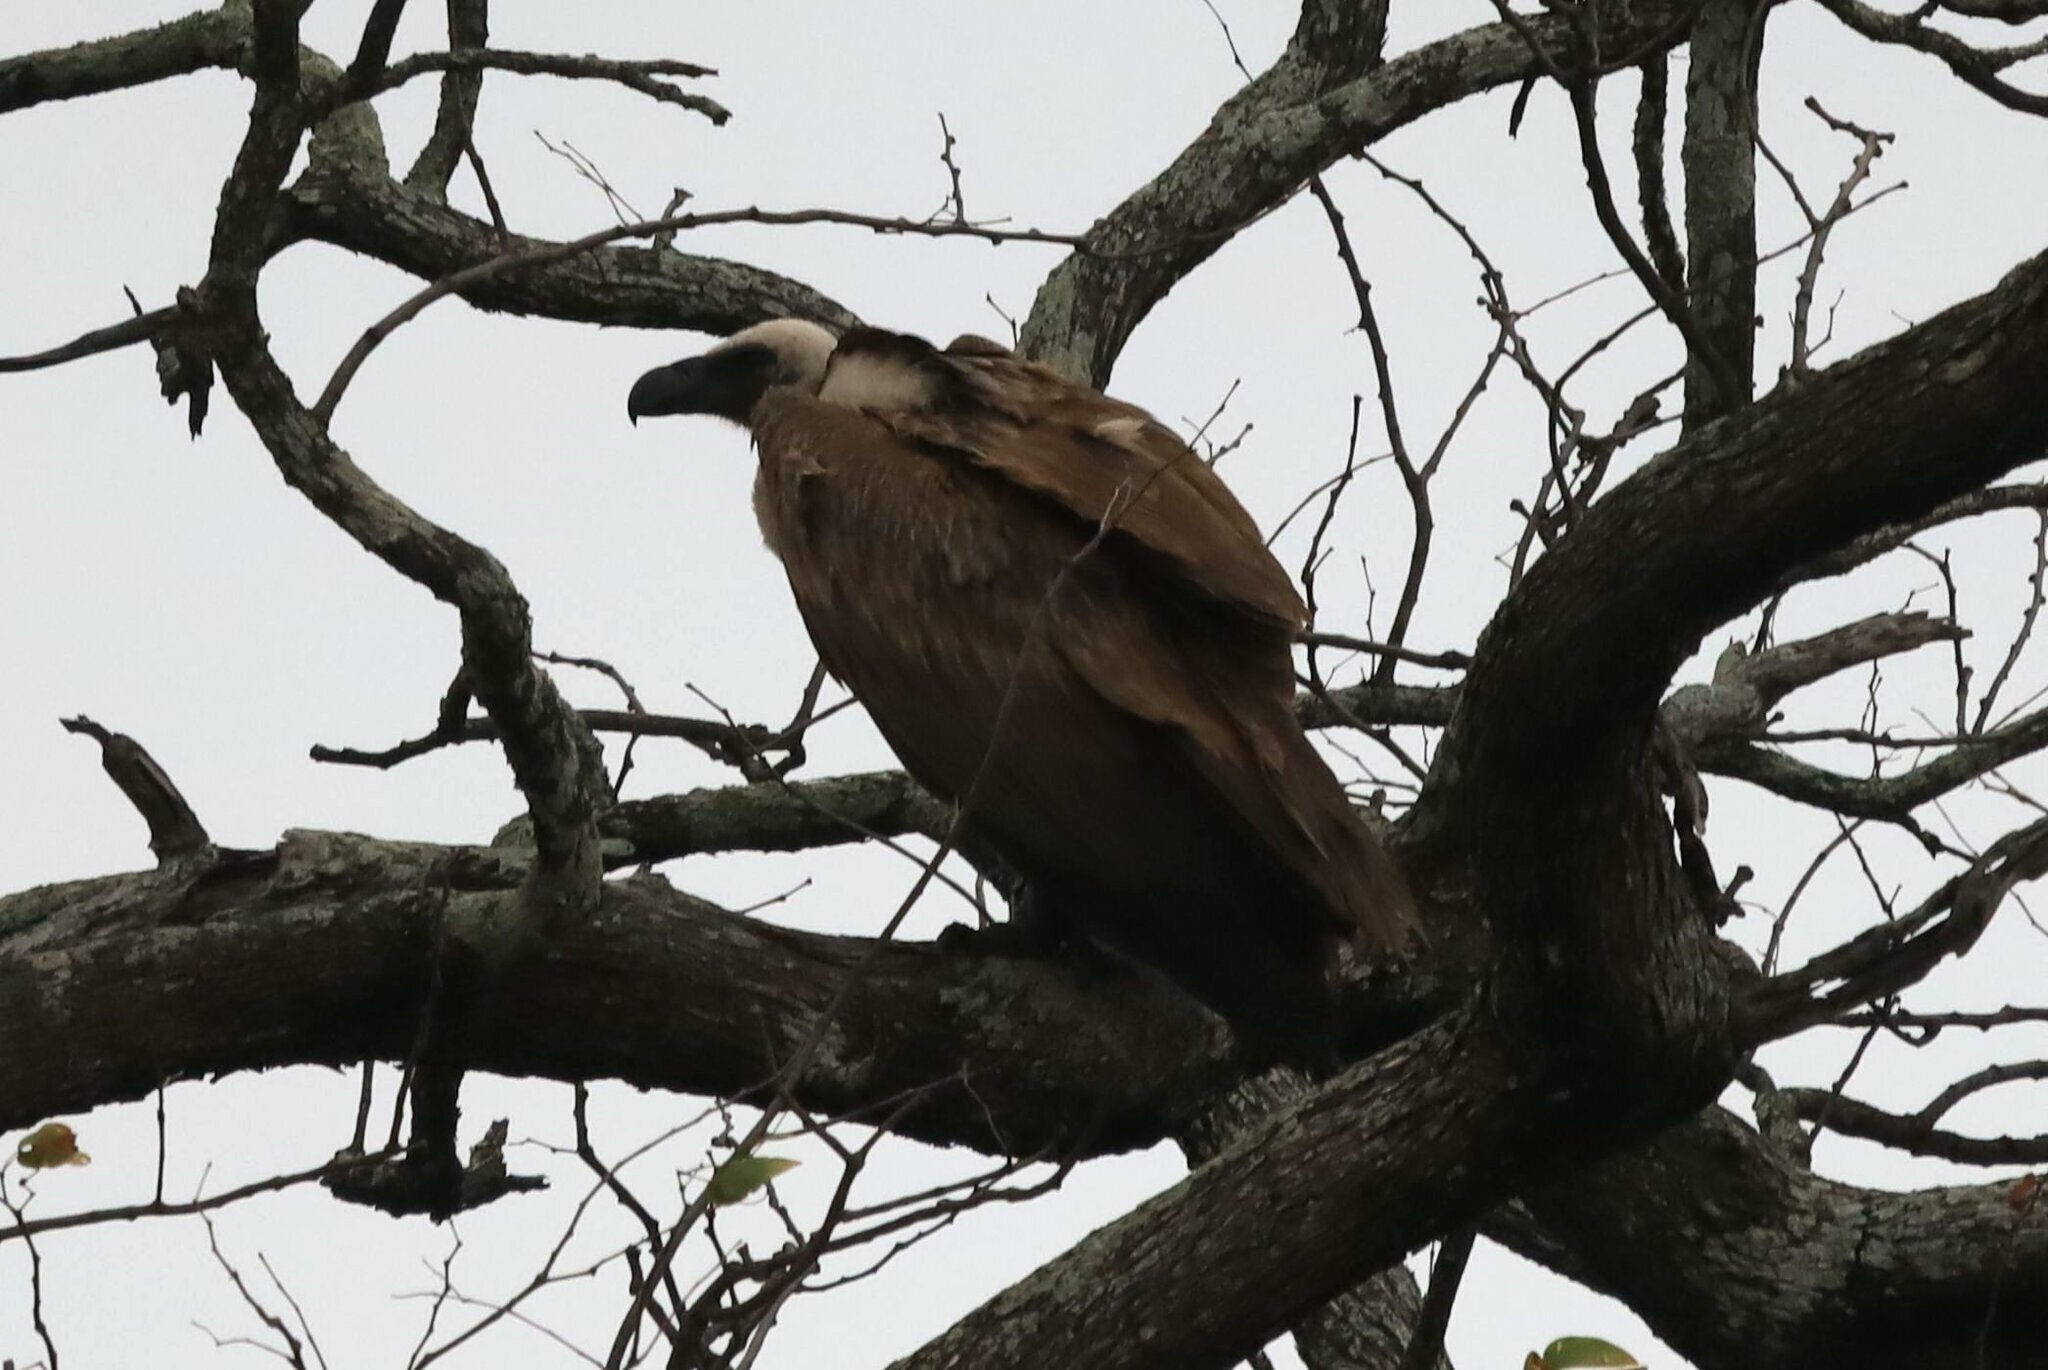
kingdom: Animalia
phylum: Chordata
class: Aves
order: Accipitriformes
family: Accipitridae
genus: Gyps
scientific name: Gyps africanus
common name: White-backed vulture
